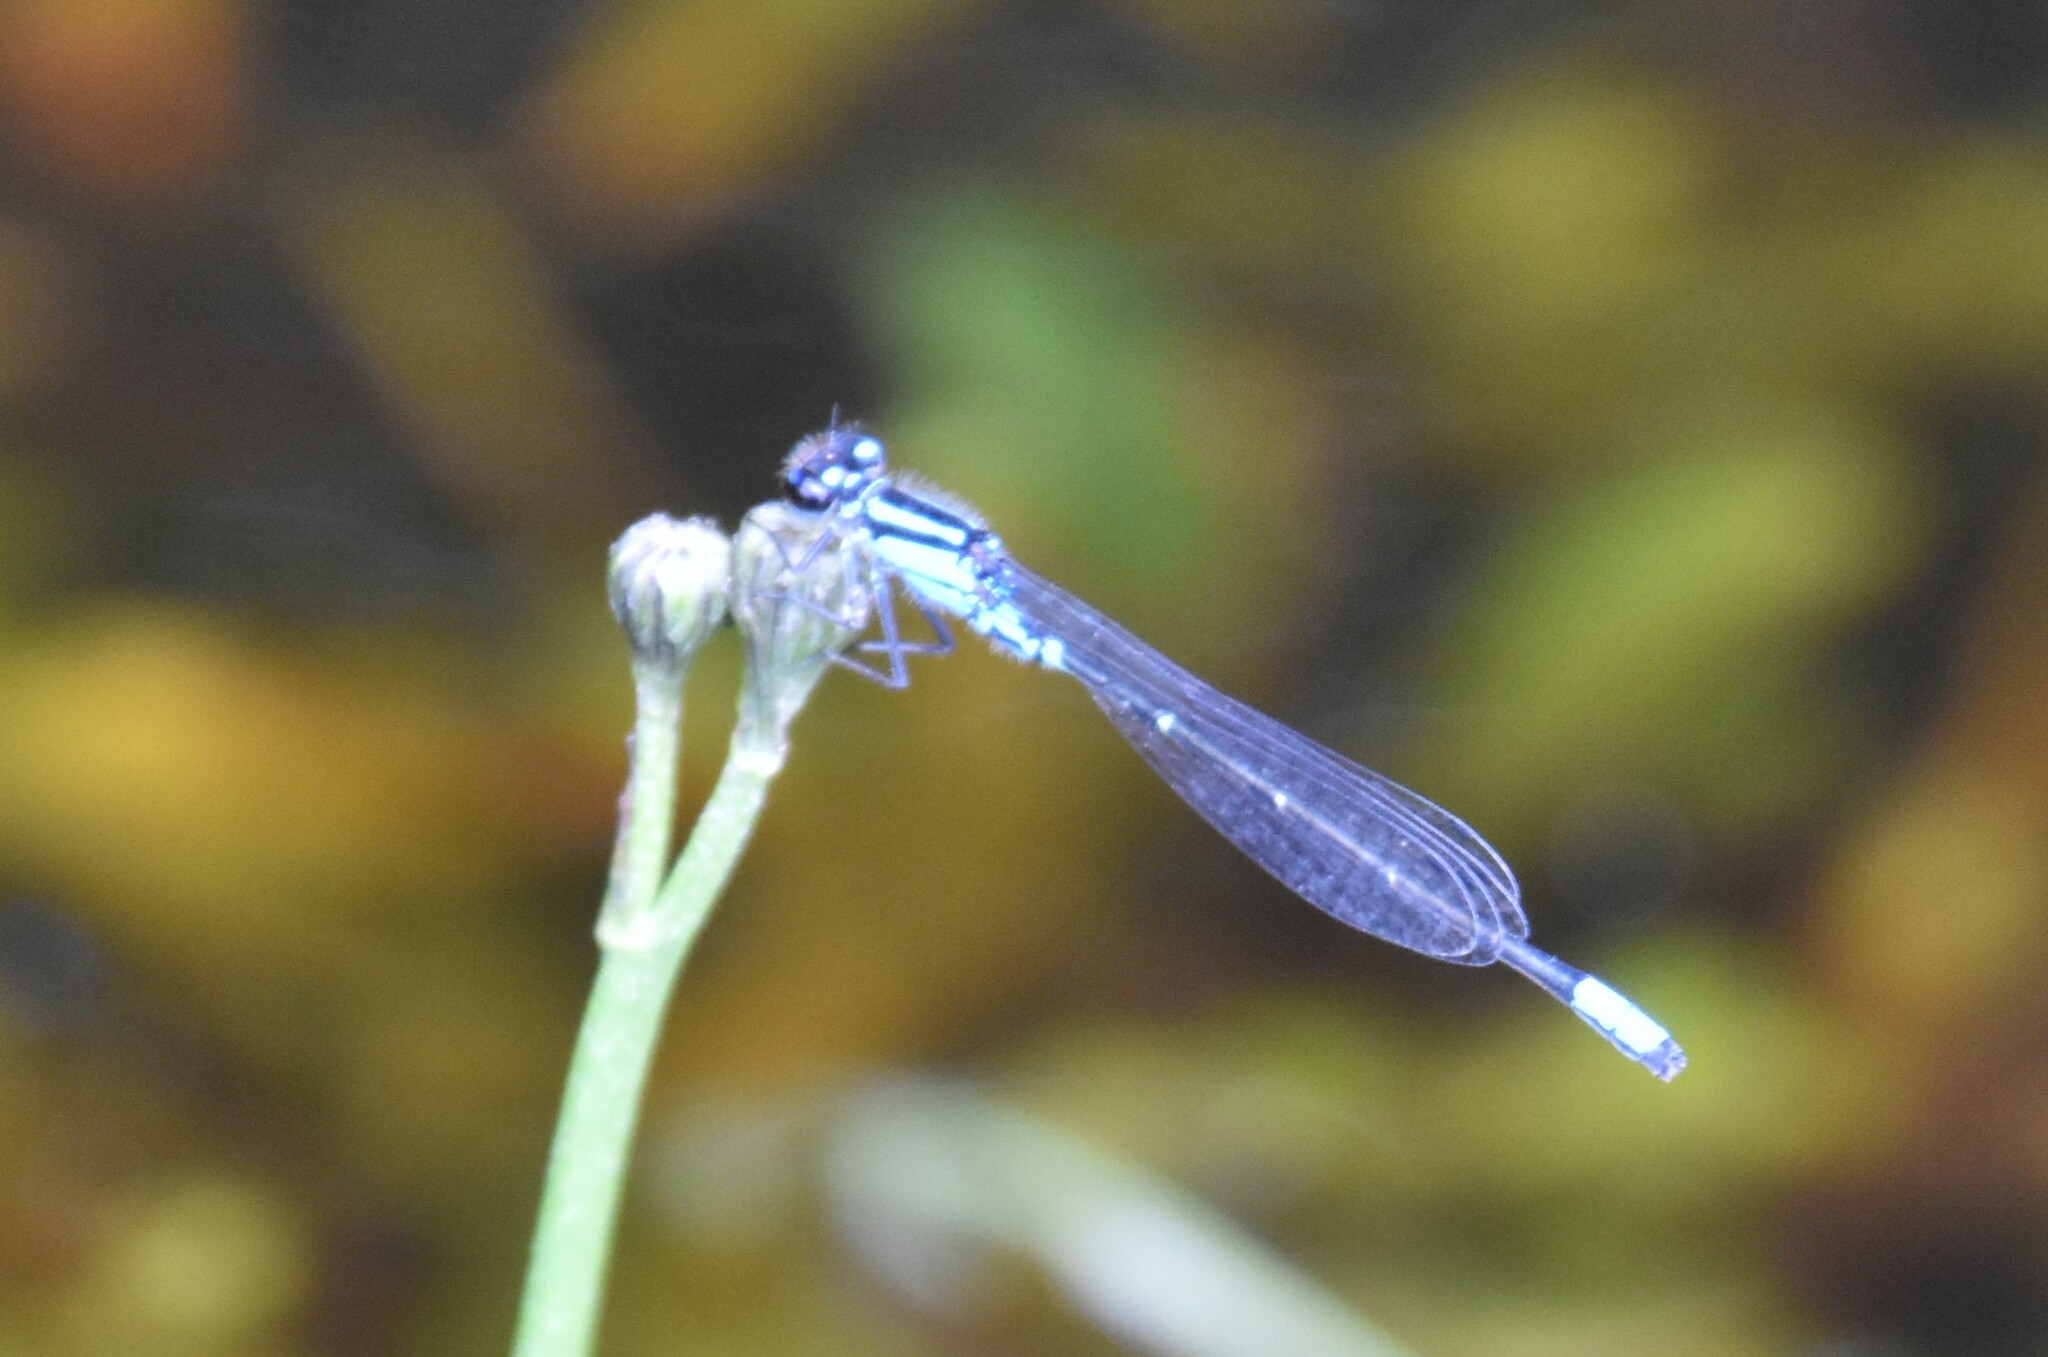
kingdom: Animalia
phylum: Arthropoda
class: Insecta
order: Odonata
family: Coenagrionidae
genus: Enallagma
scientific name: Enallagma geminatum
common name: Skimming bluet
